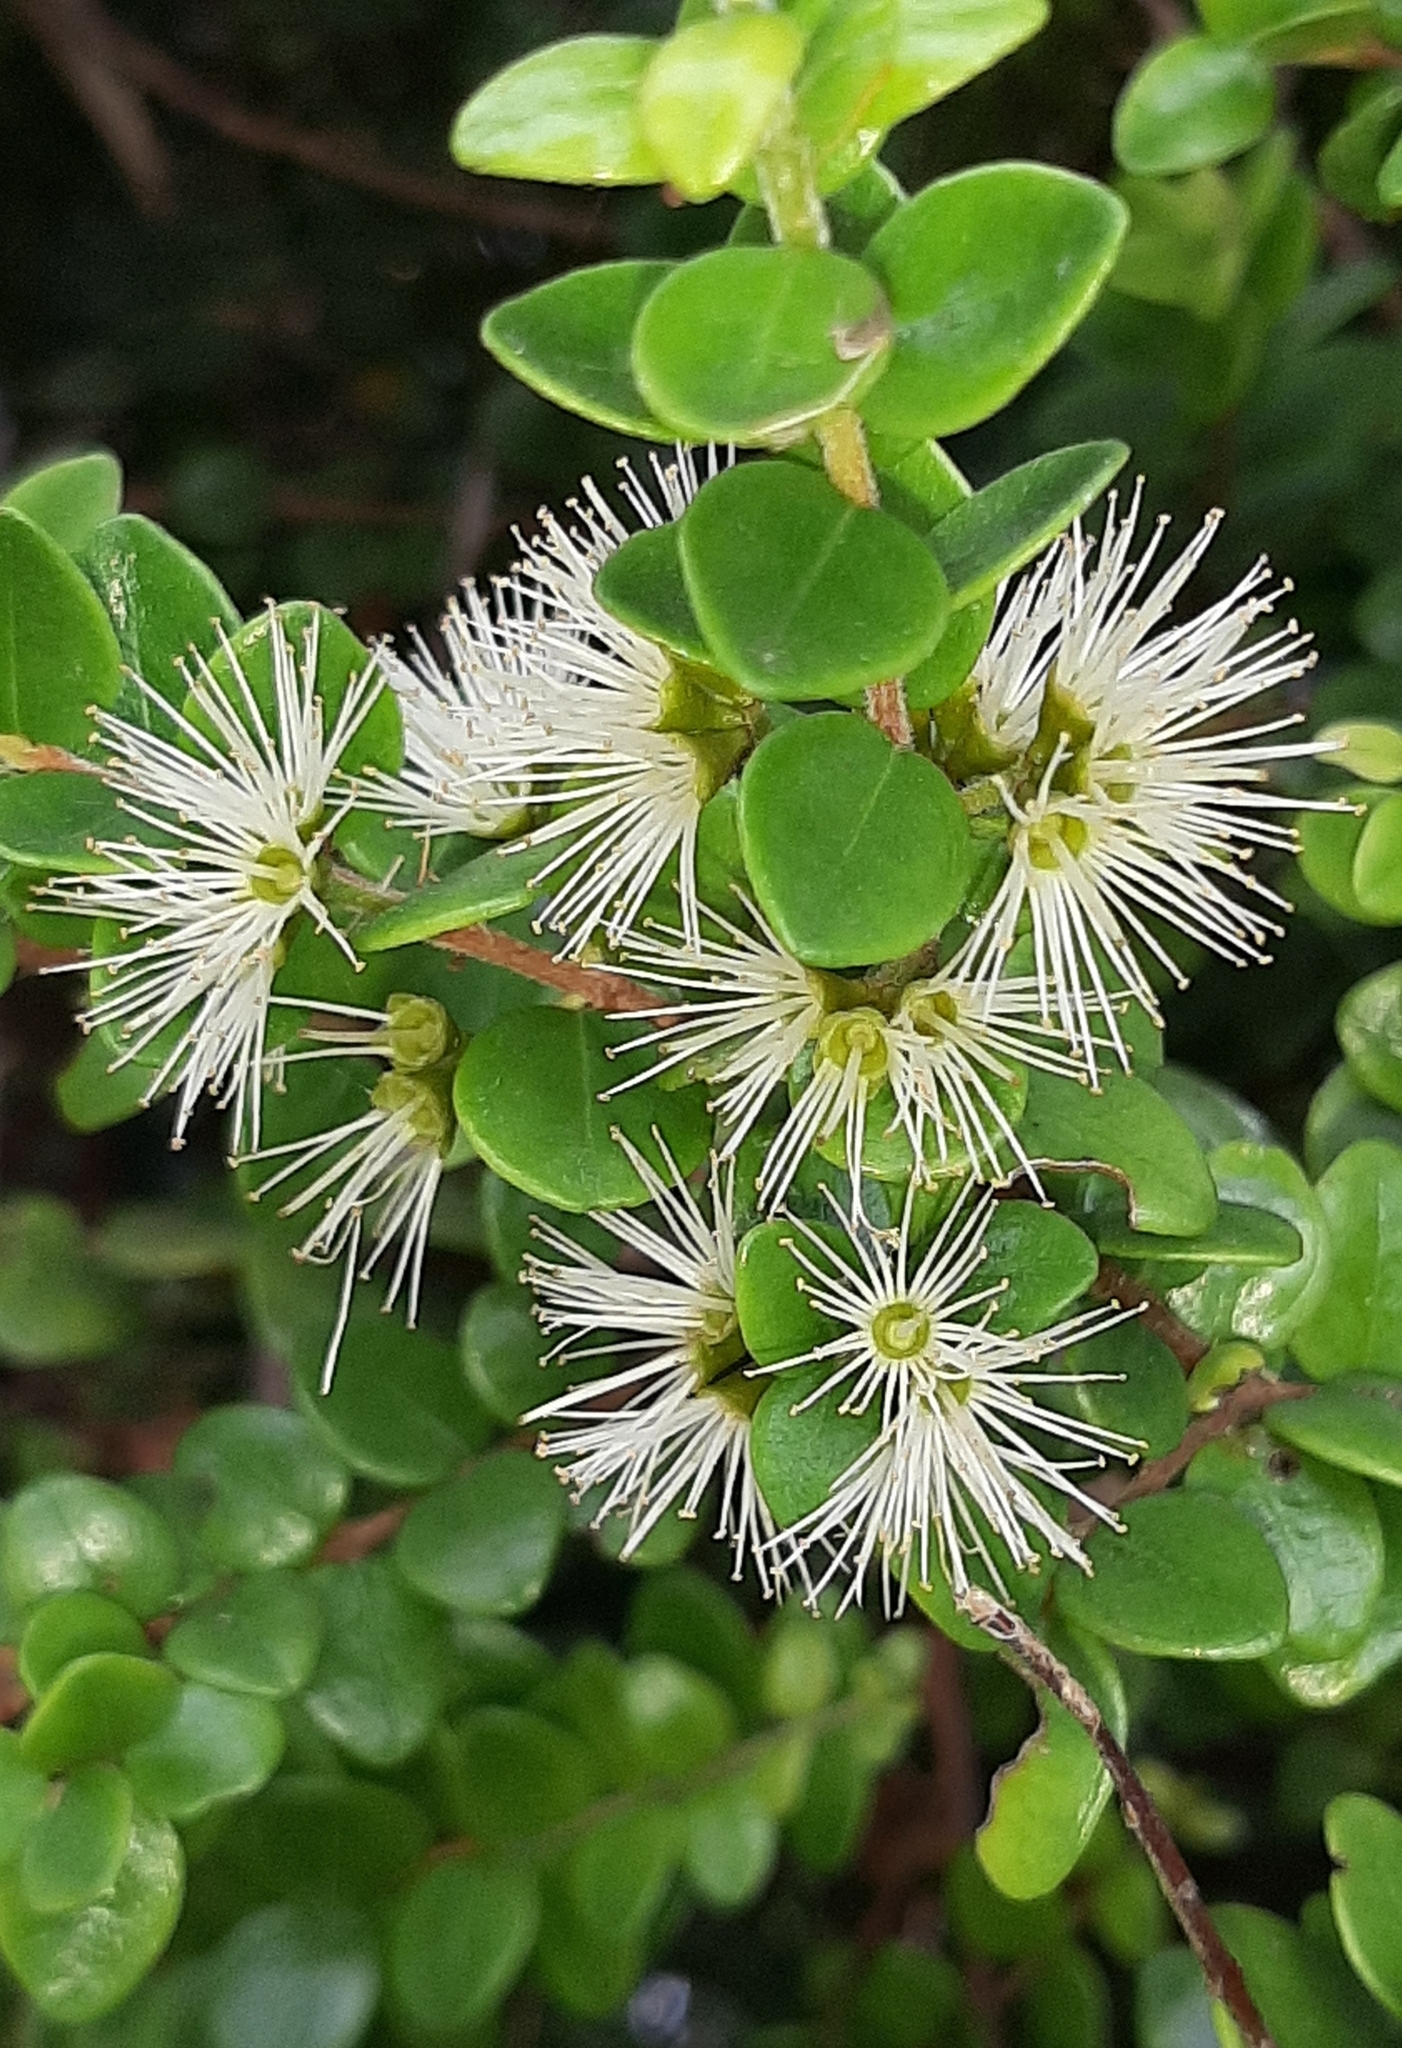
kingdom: Plantae
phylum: Tracheophyta
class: Magnoliopsida
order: Myrtales
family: Myrtaceae
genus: Metrosideros
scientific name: Metrosideros perforata
